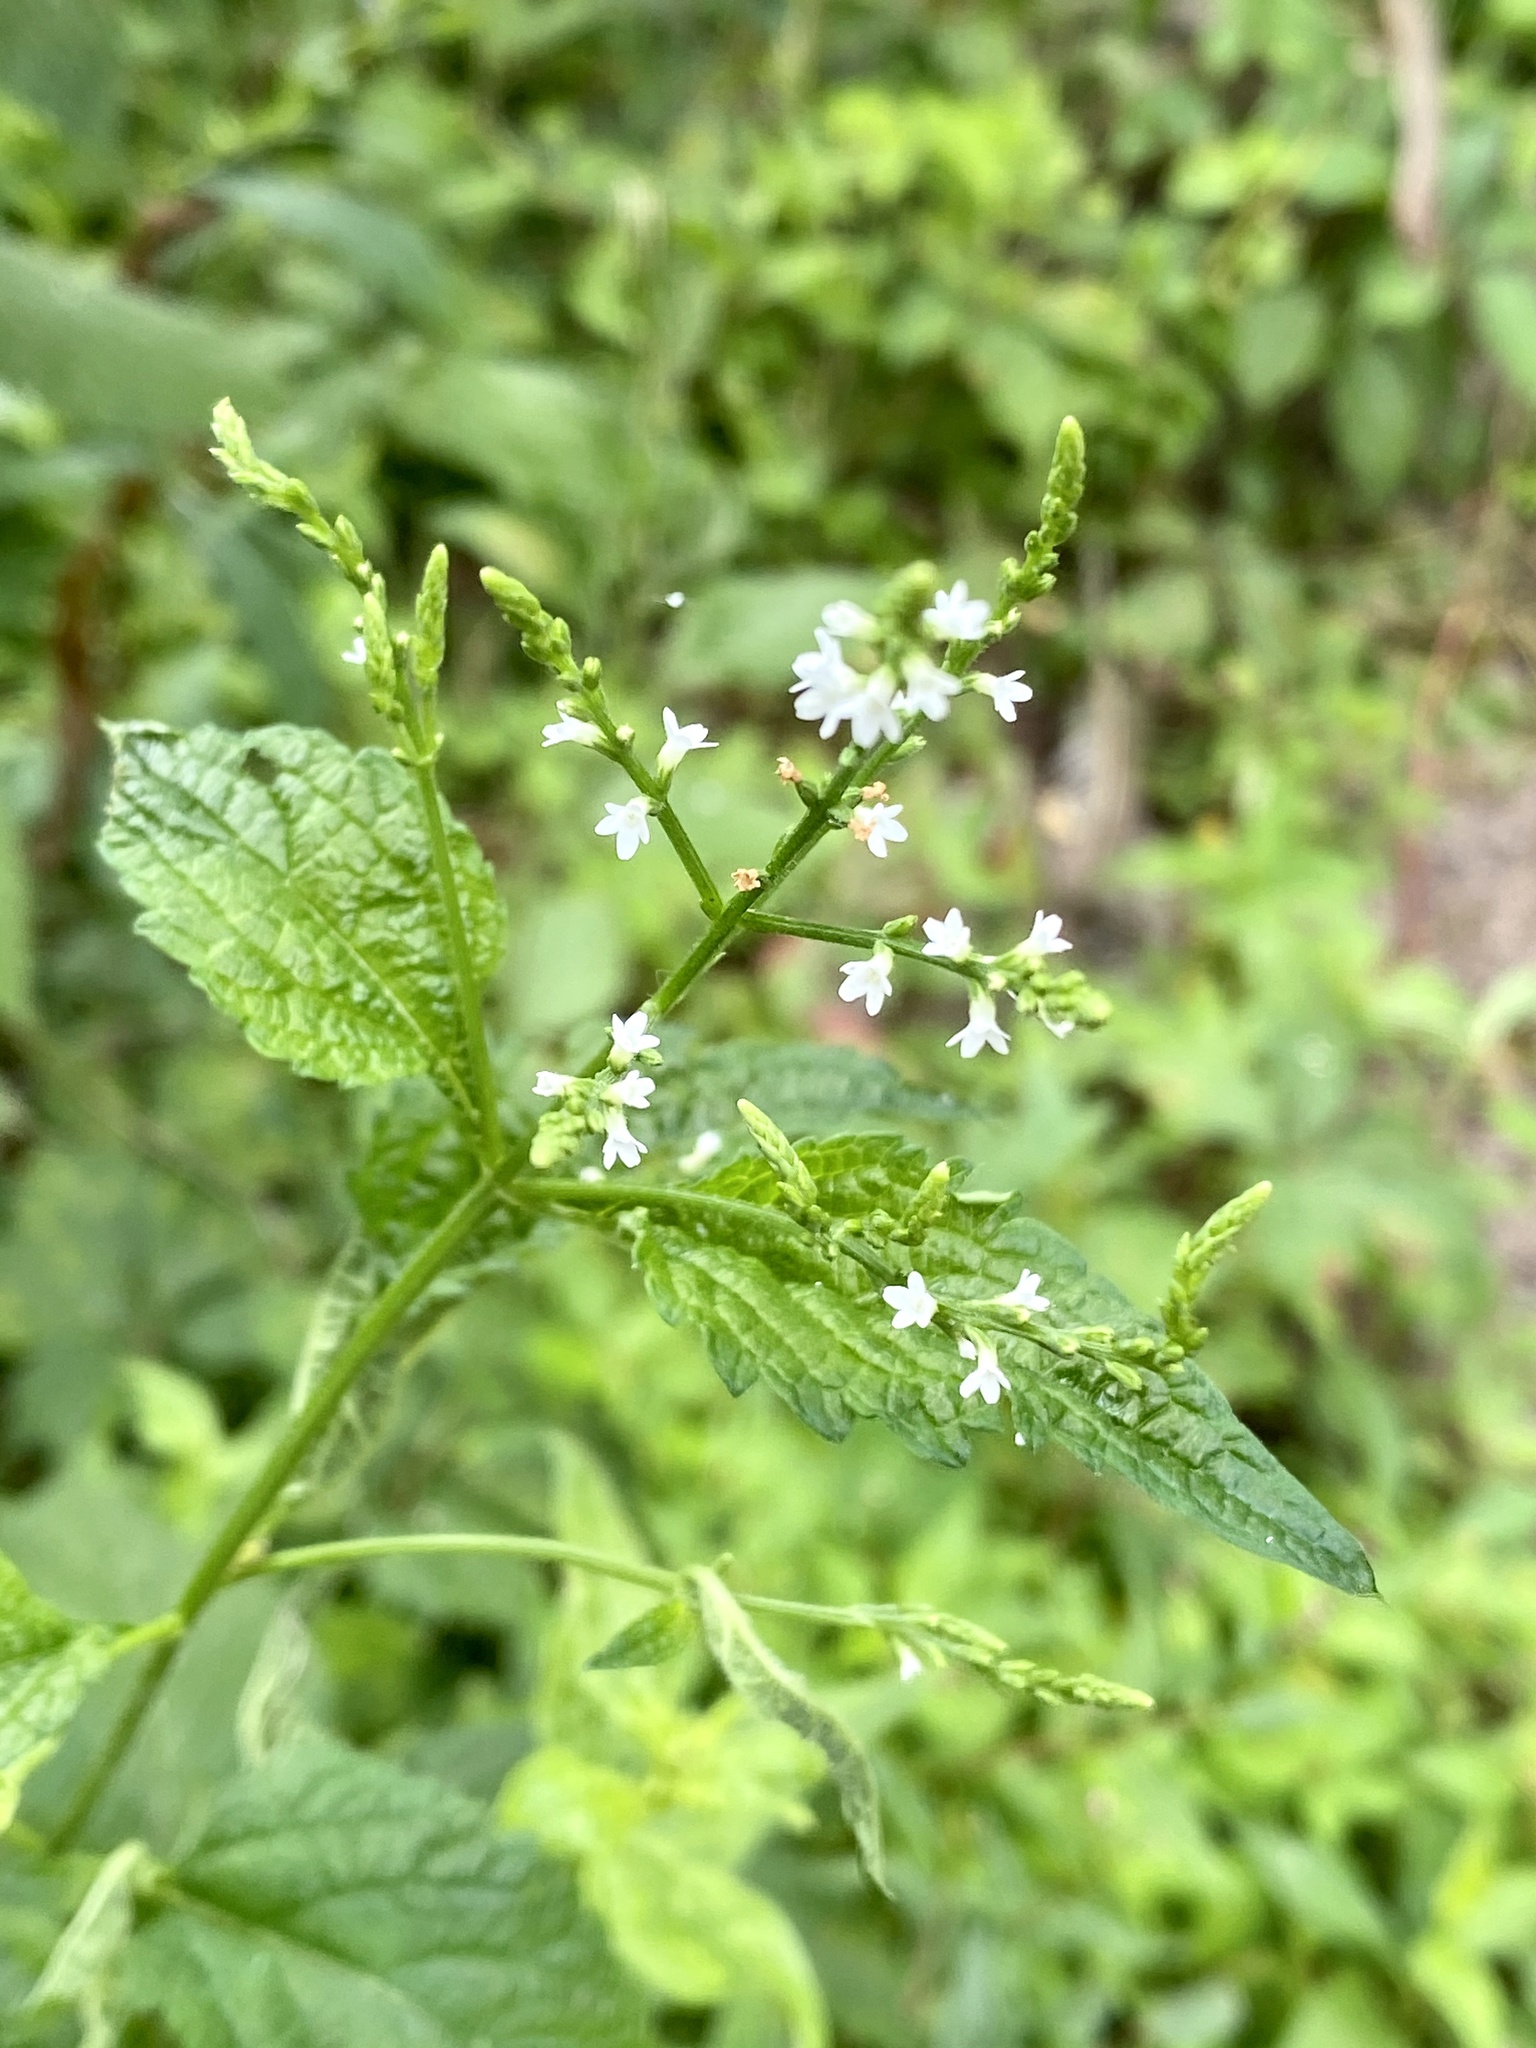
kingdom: Plantae
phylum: Tracheophyta
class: Magnoliopsida
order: Lamiales
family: Verbenaceae
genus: Verbena
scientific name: Verbena urticifolia
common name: Nettle-leaved vervain
